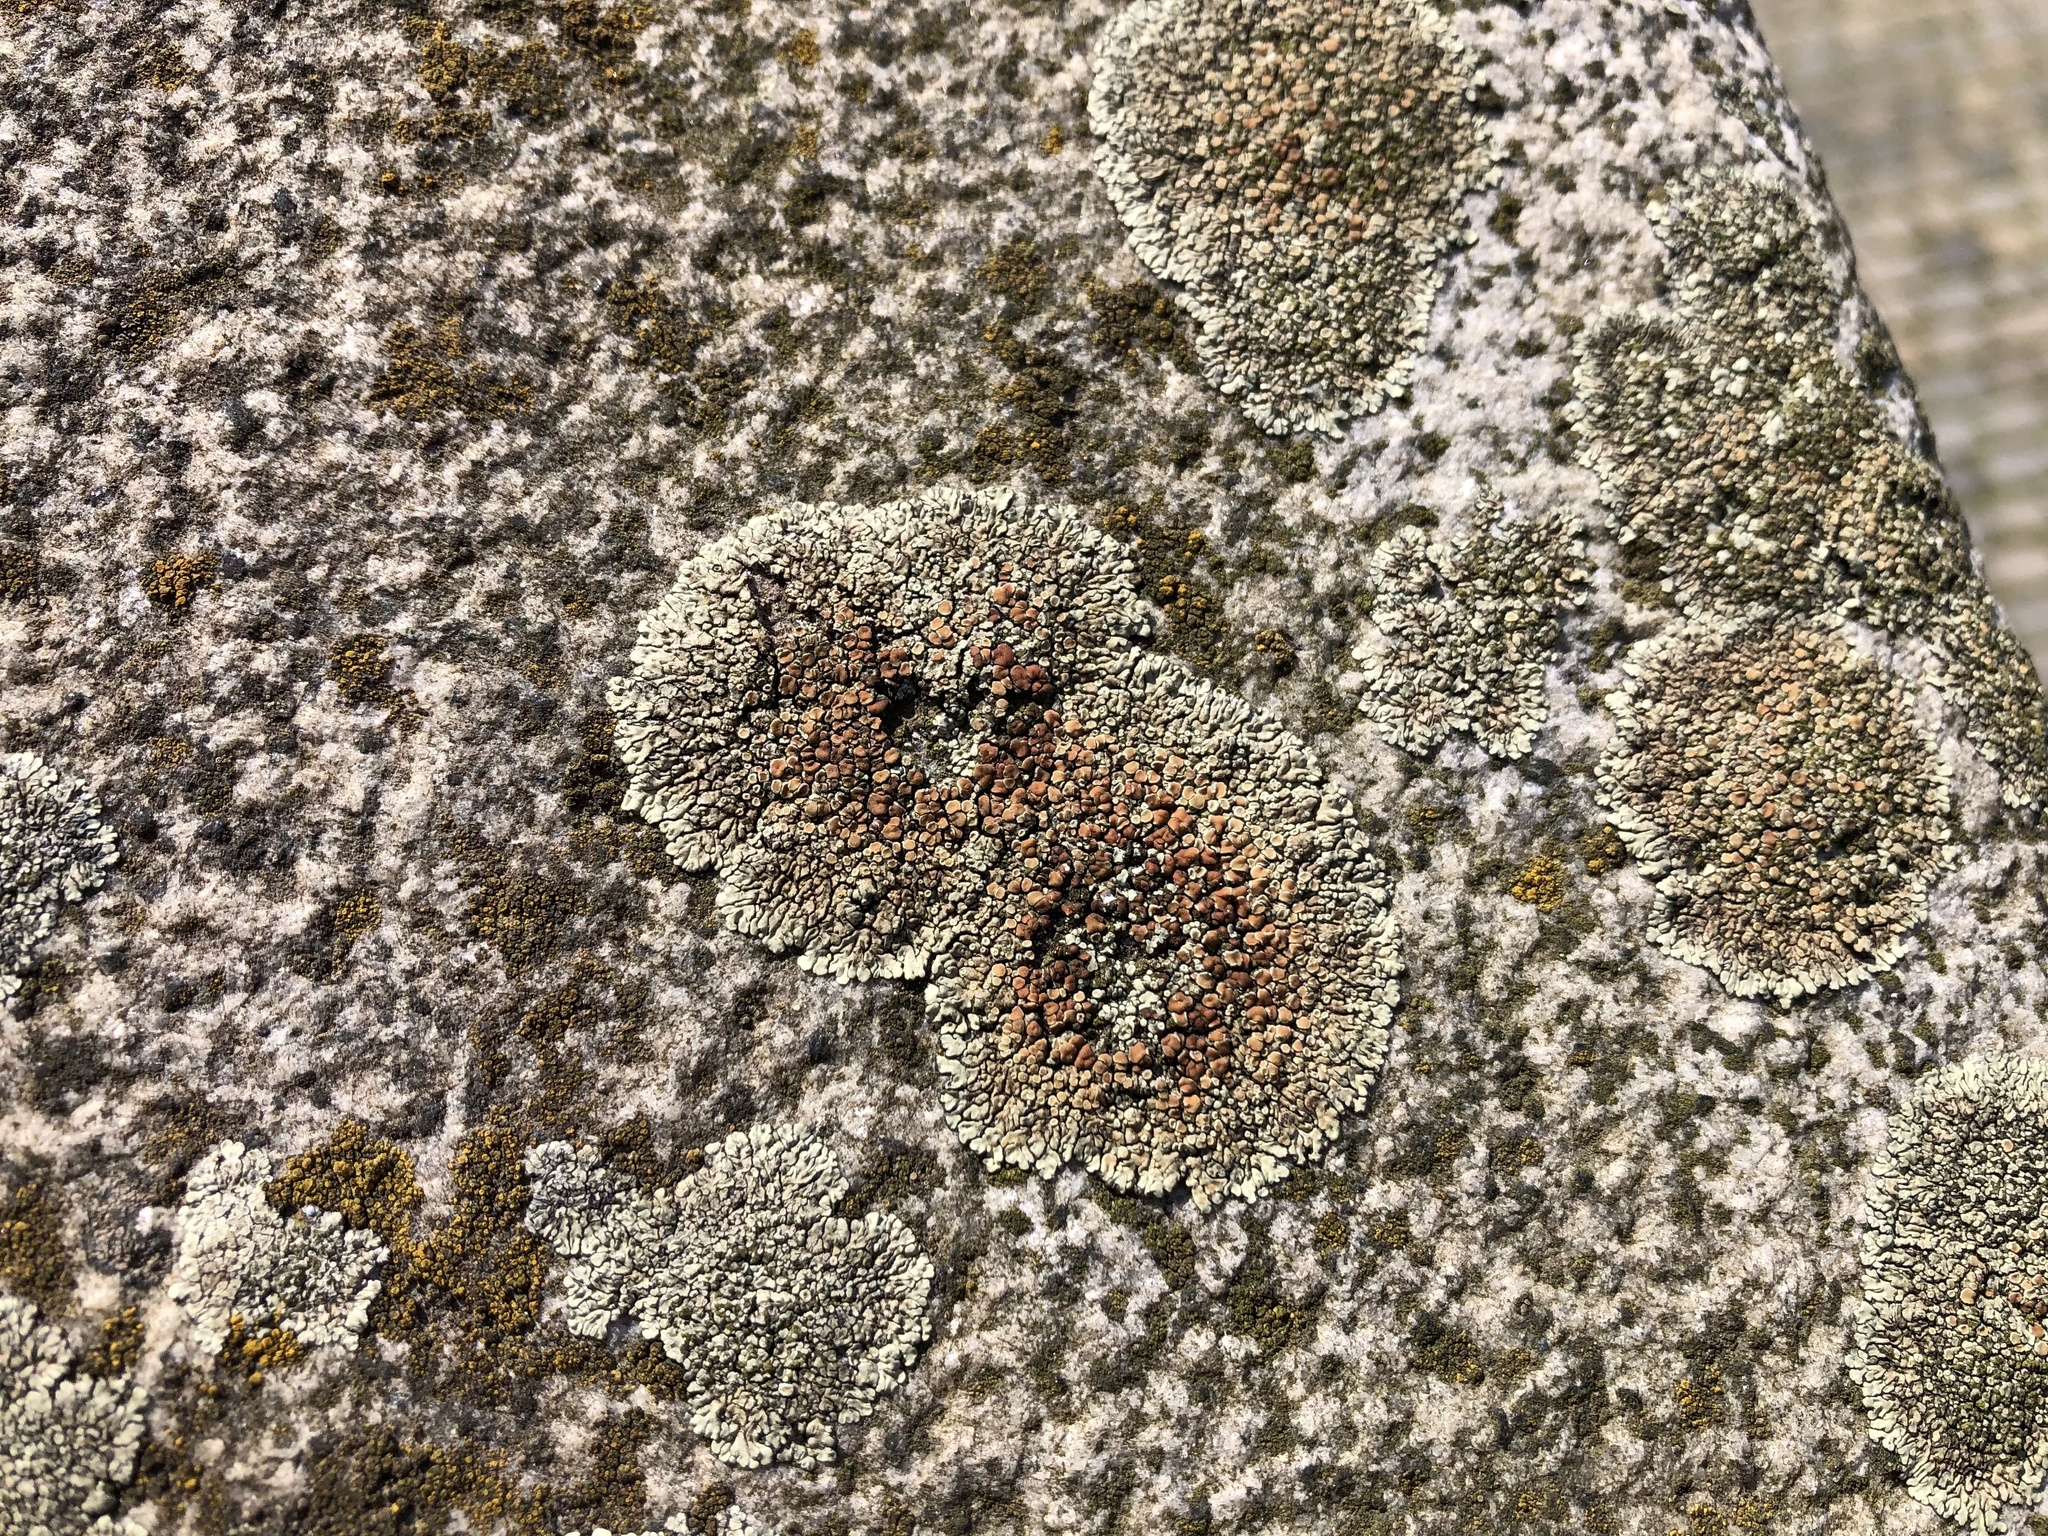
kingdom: Fungi
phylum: Ascomycota
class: Lecanoromycetes
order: Lecanorales
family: Lecanoraceae
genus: Protoparmeliopsis
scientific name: Protoparmeliopsis muralis
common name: Stonewall rim lichen
